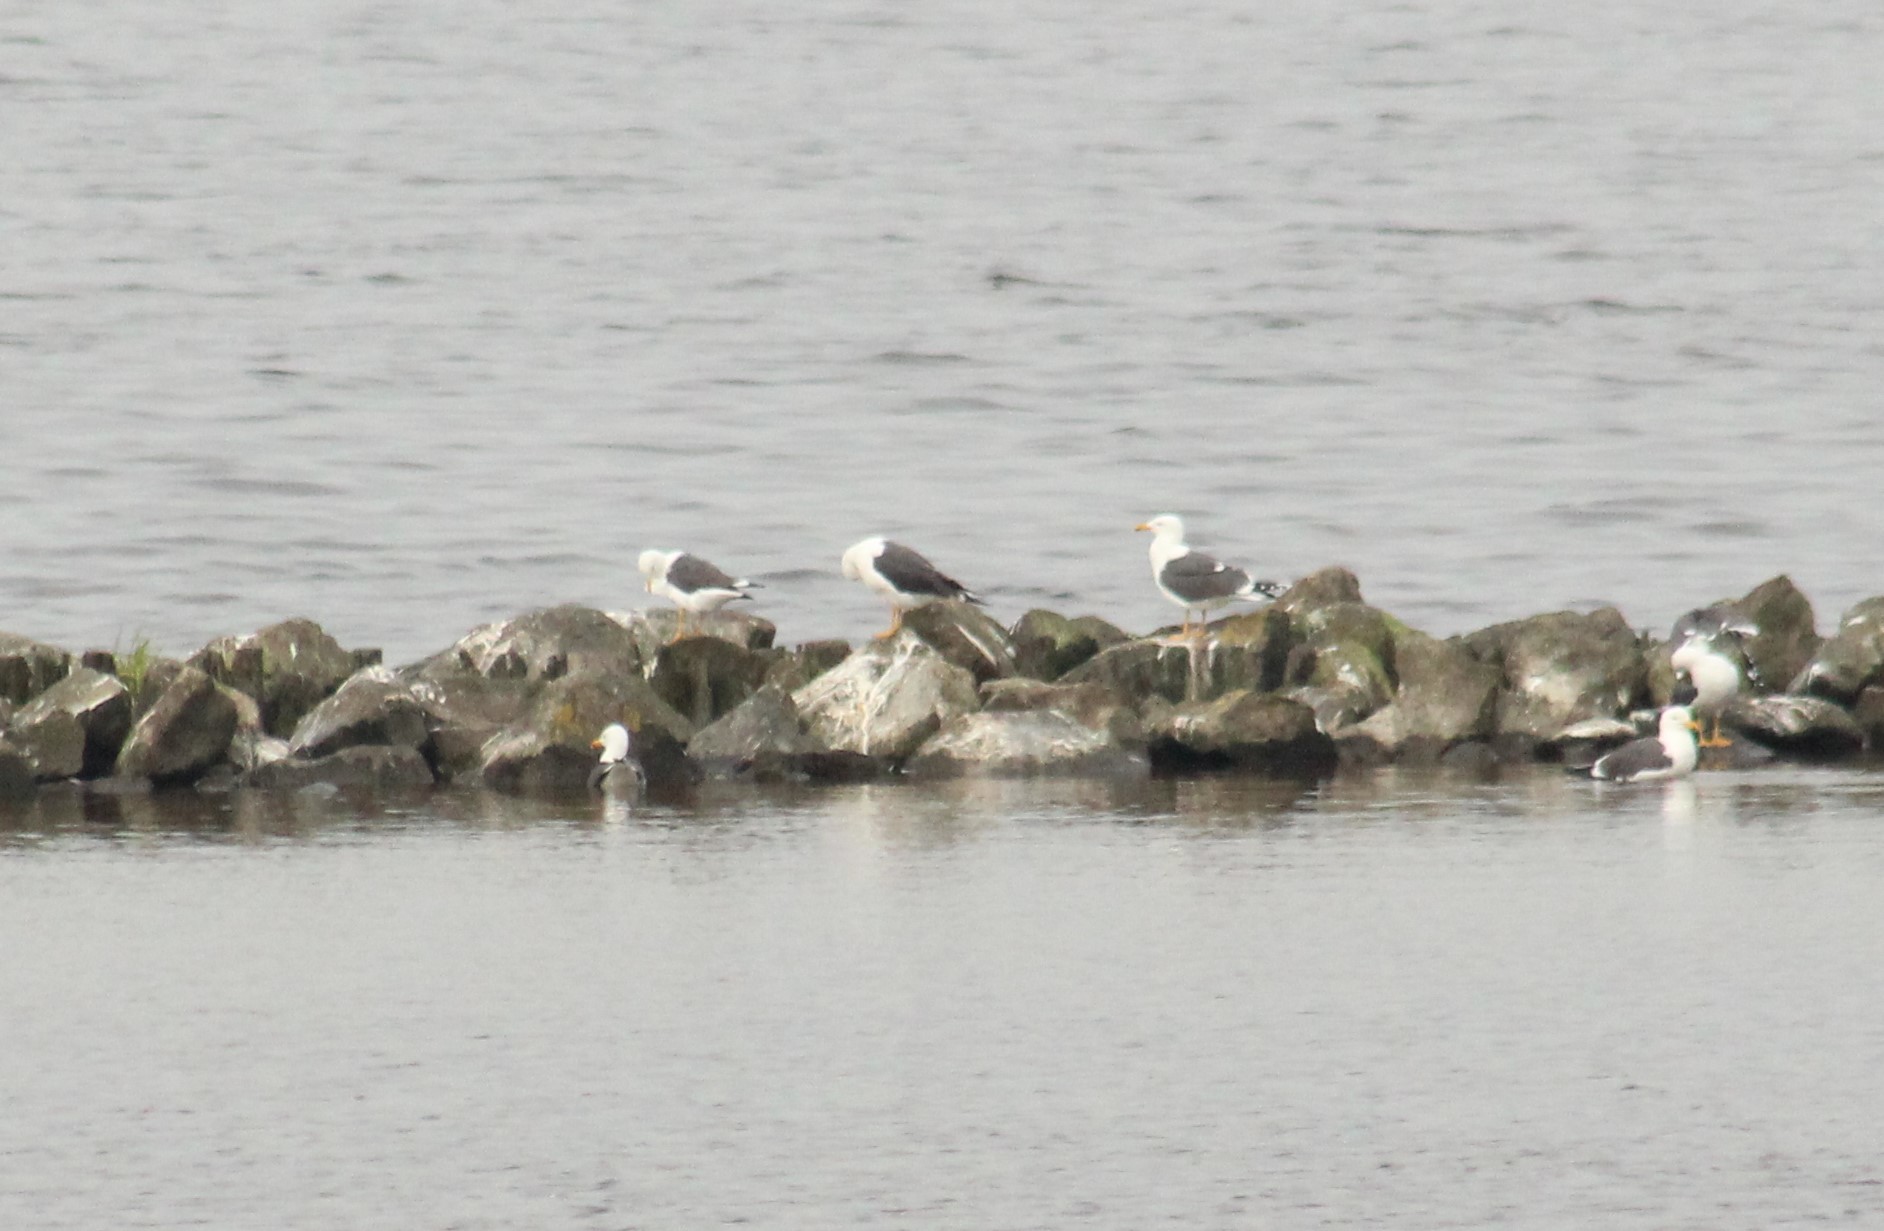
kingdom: Animalia
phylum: Chordata
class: Aves
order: Charadriiformes
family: Laridae
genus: Larus
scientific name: Larus fuscus
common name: Lesser black-backed gull
